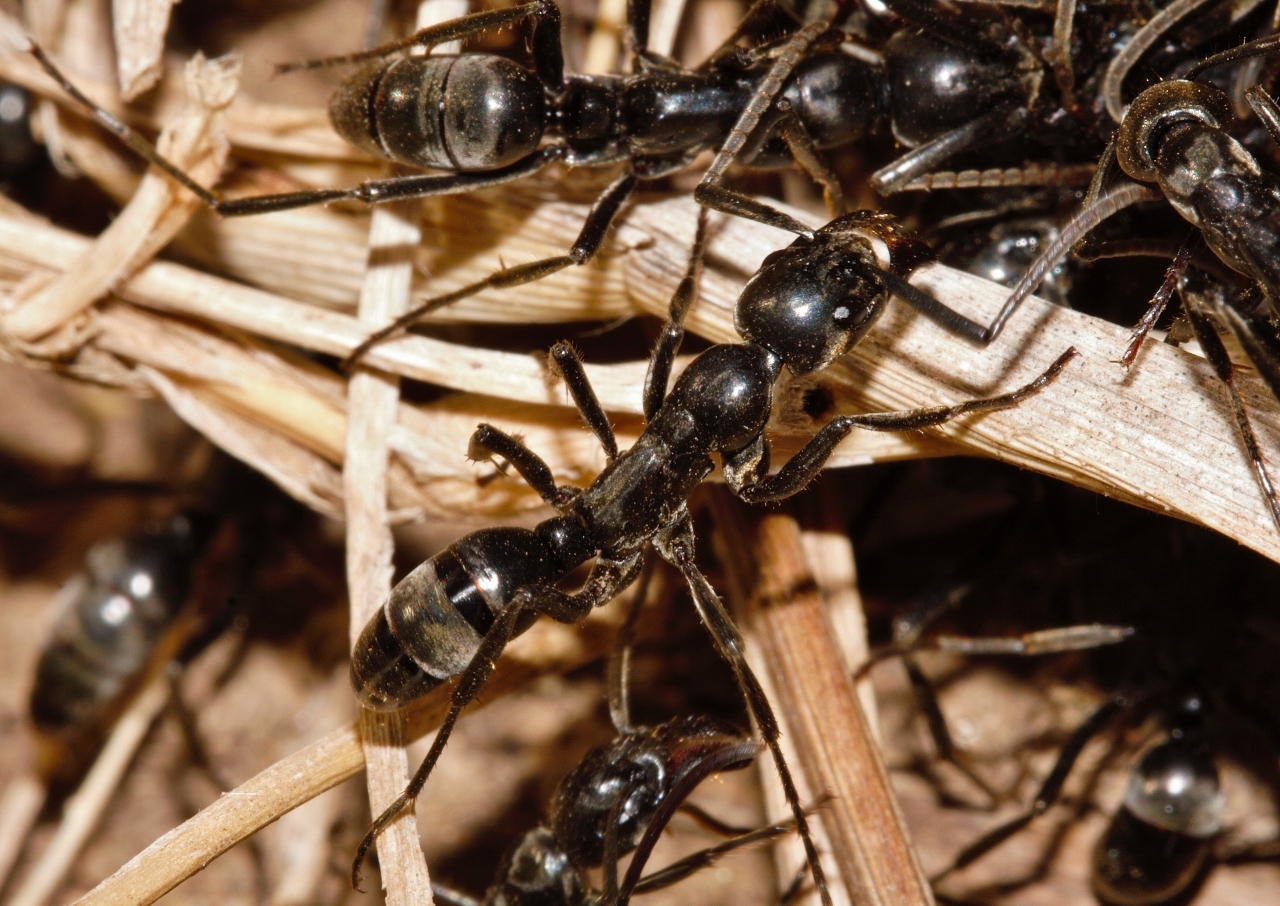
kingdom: Animalia
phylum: Arthropoda
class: Insecta
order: Hymenoptera
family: Formicidae
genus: Megaponera
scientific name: Megaponera analis
